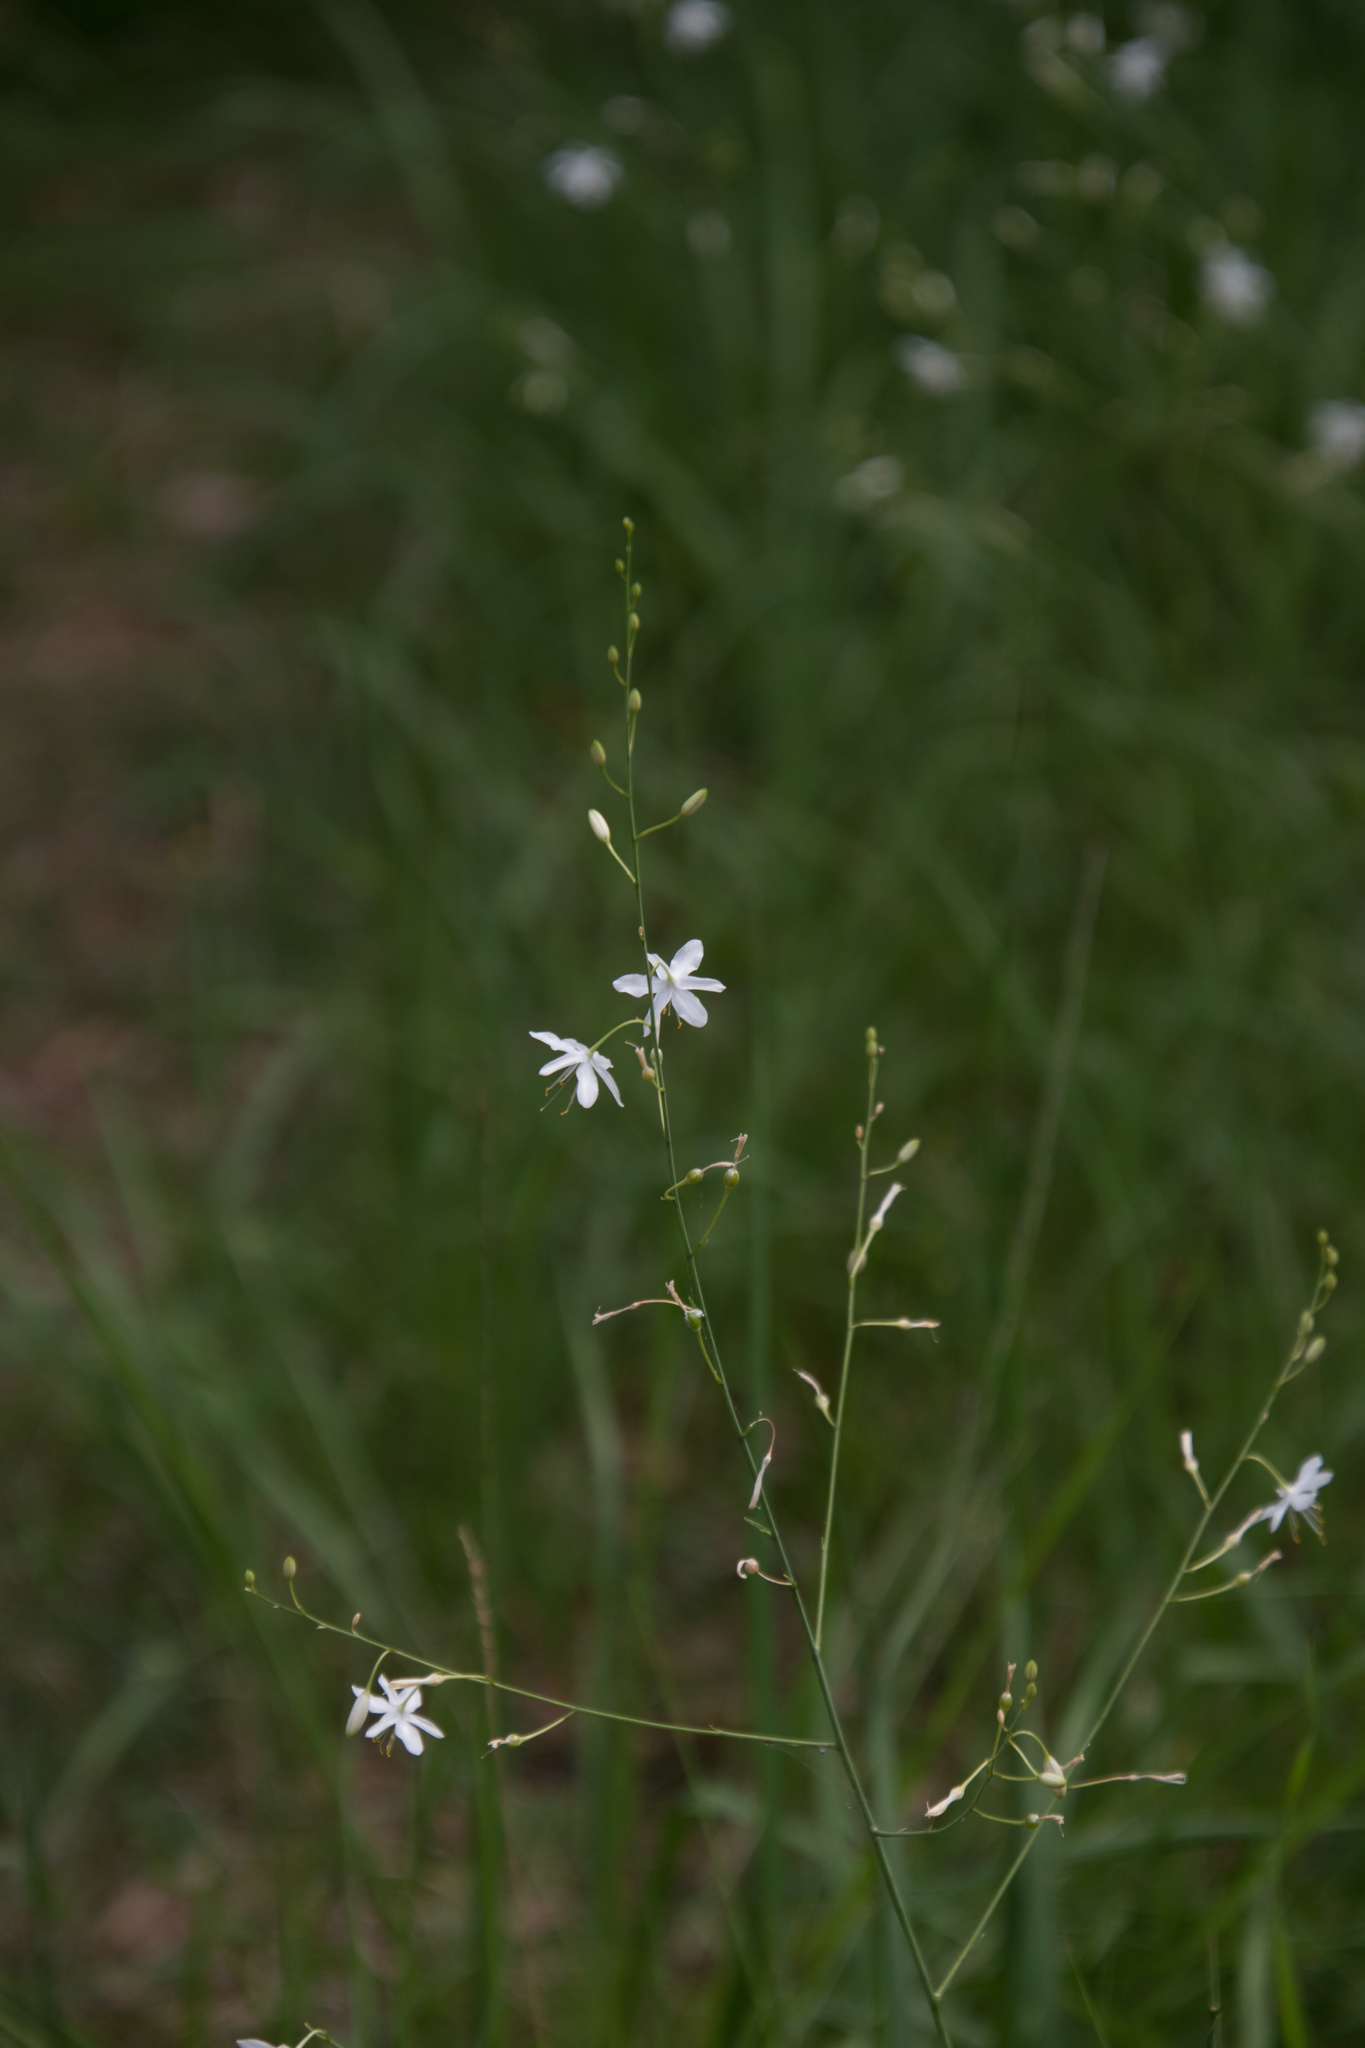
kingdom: Plantae
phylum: Tracheophyta
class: Liliopsida
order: Asparagales
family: Asparagaceae
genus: Anthericum
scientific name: Anthericum ramosum
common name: Branched st. bernard's-lily
